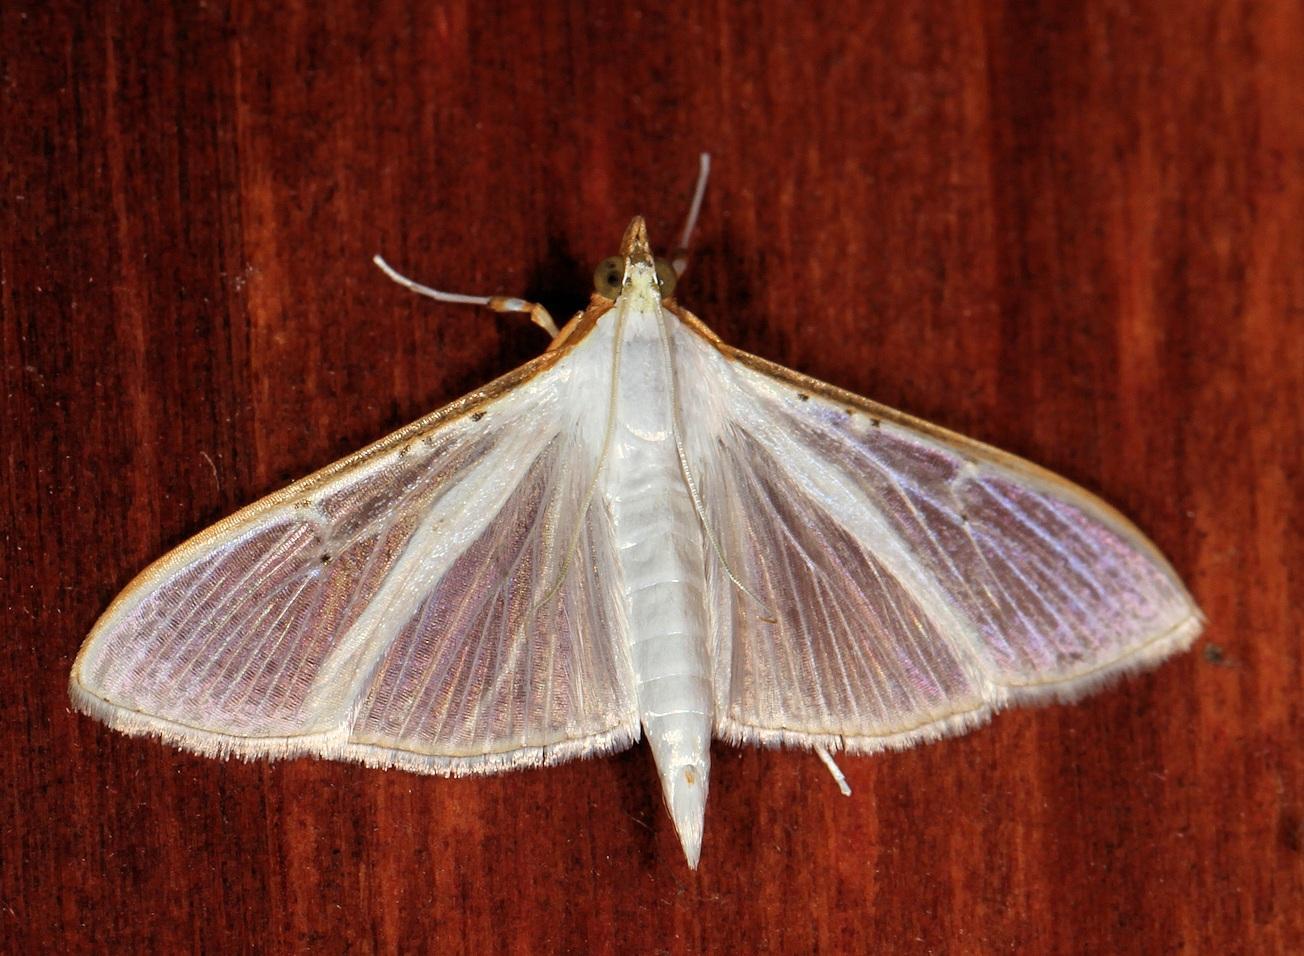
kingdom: Animalia
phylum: Arthropoda
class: Insecta
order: Lepidoptera
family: Crambidae
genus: Palpita
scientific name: Palpita vitrealis
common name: Olive-tree pearl
